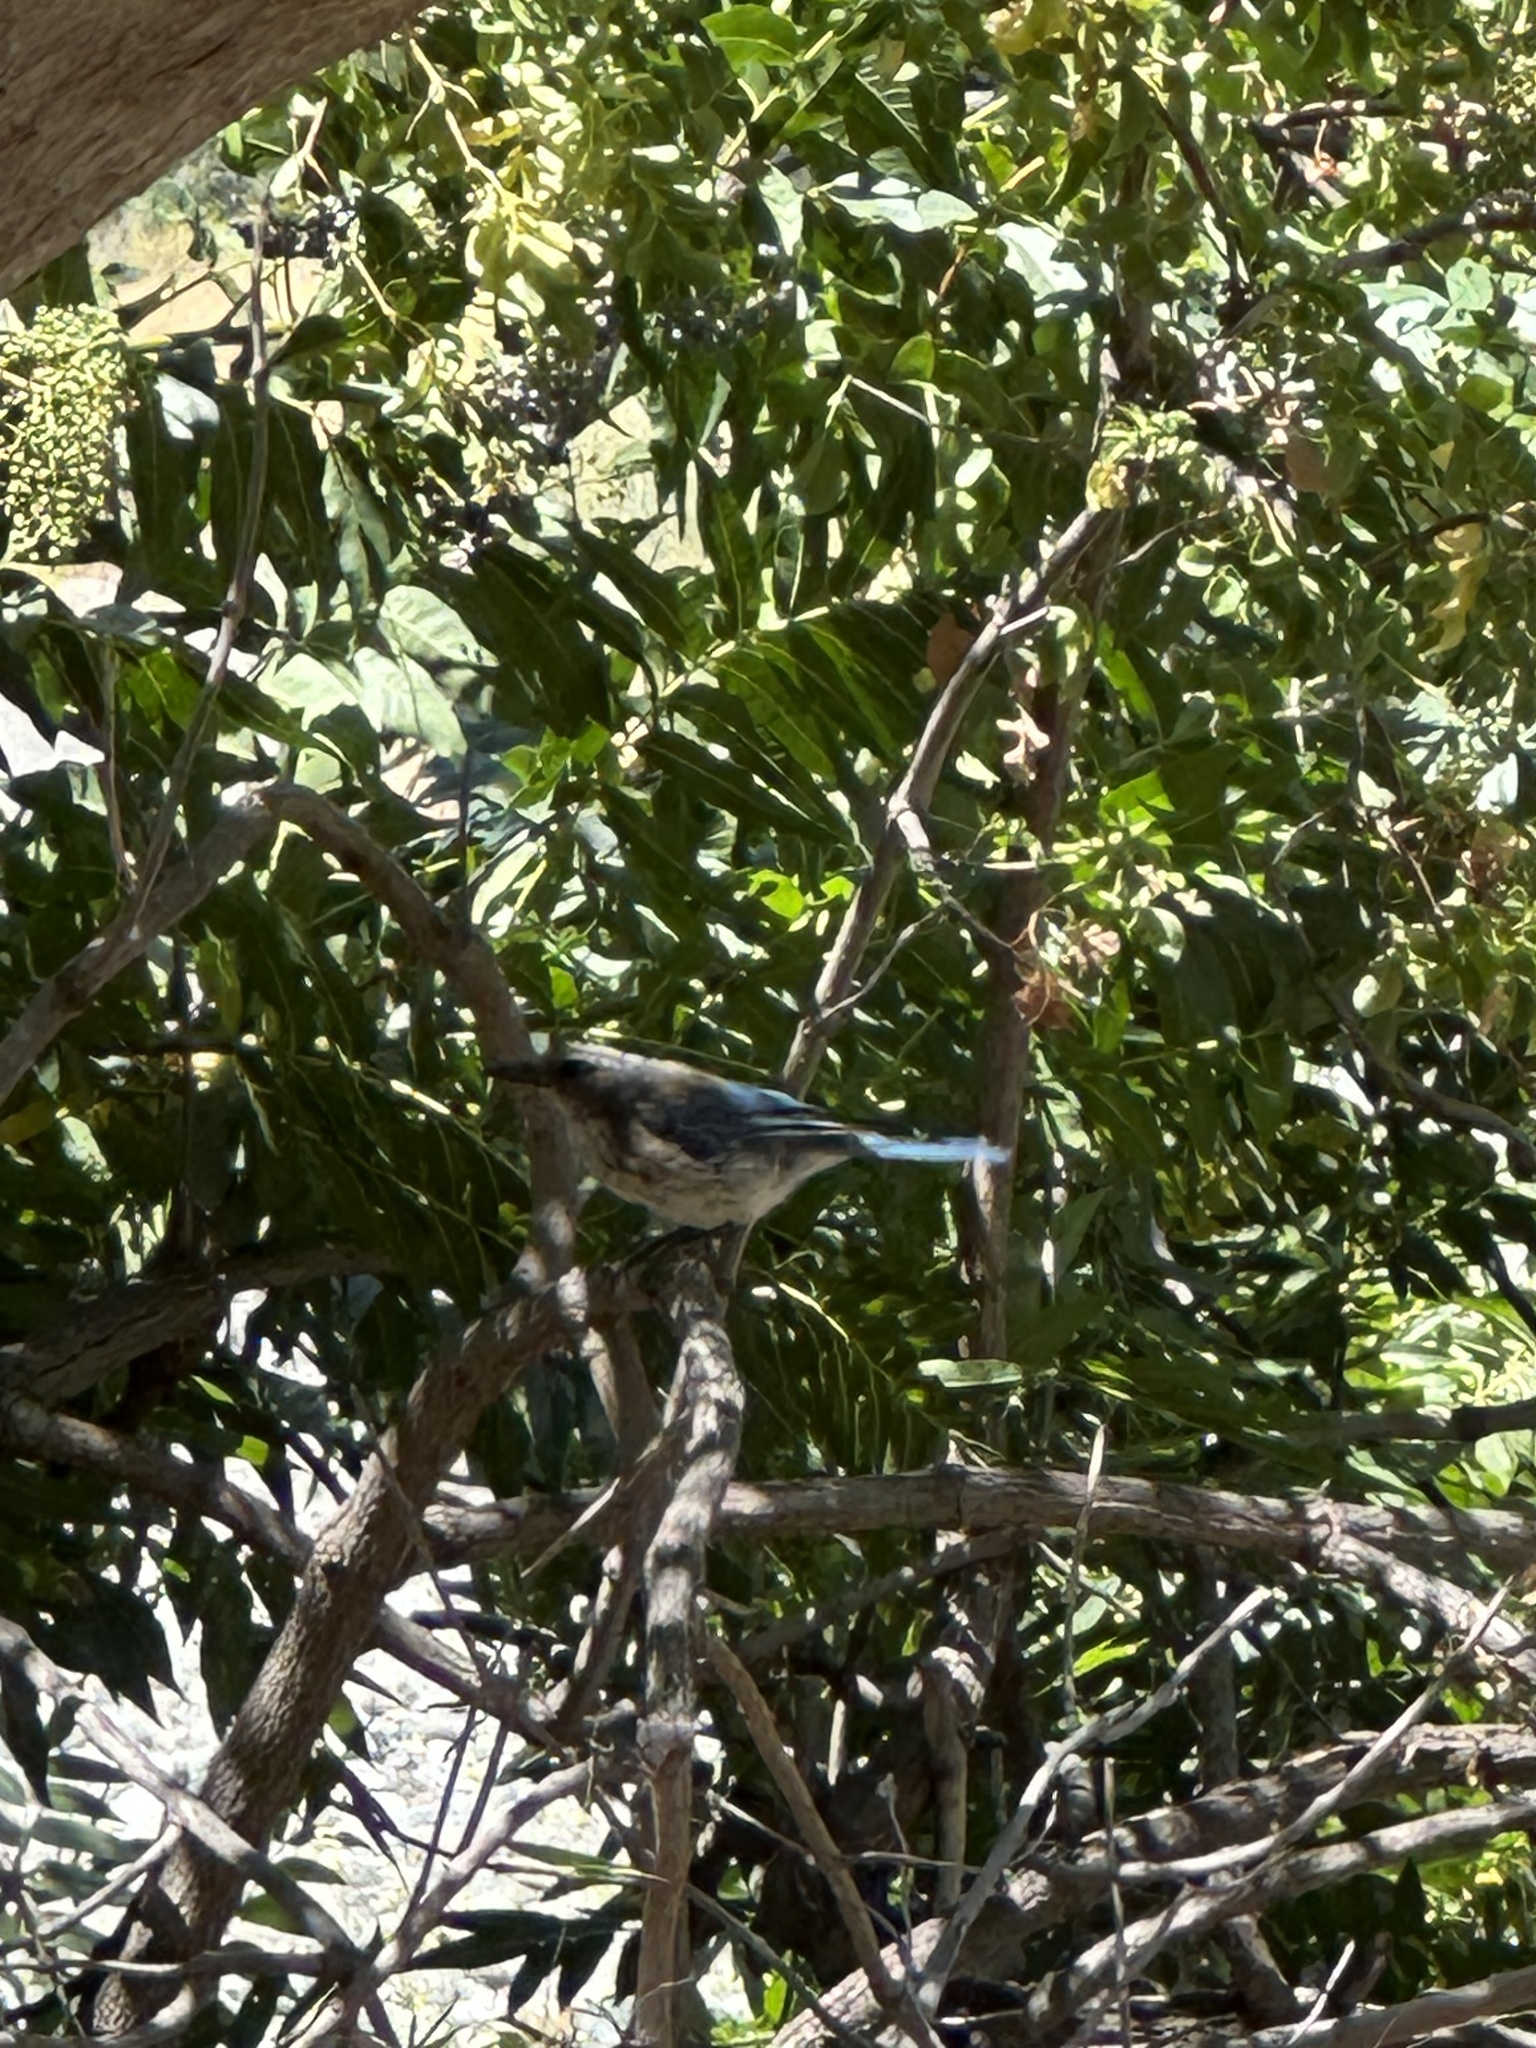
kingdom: Animalia
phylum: Chordata
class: Aves
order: Passeriformes
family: Corvidae
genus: Aphelocoma
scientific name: Aphelocoma californica
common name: California scrub-jay
